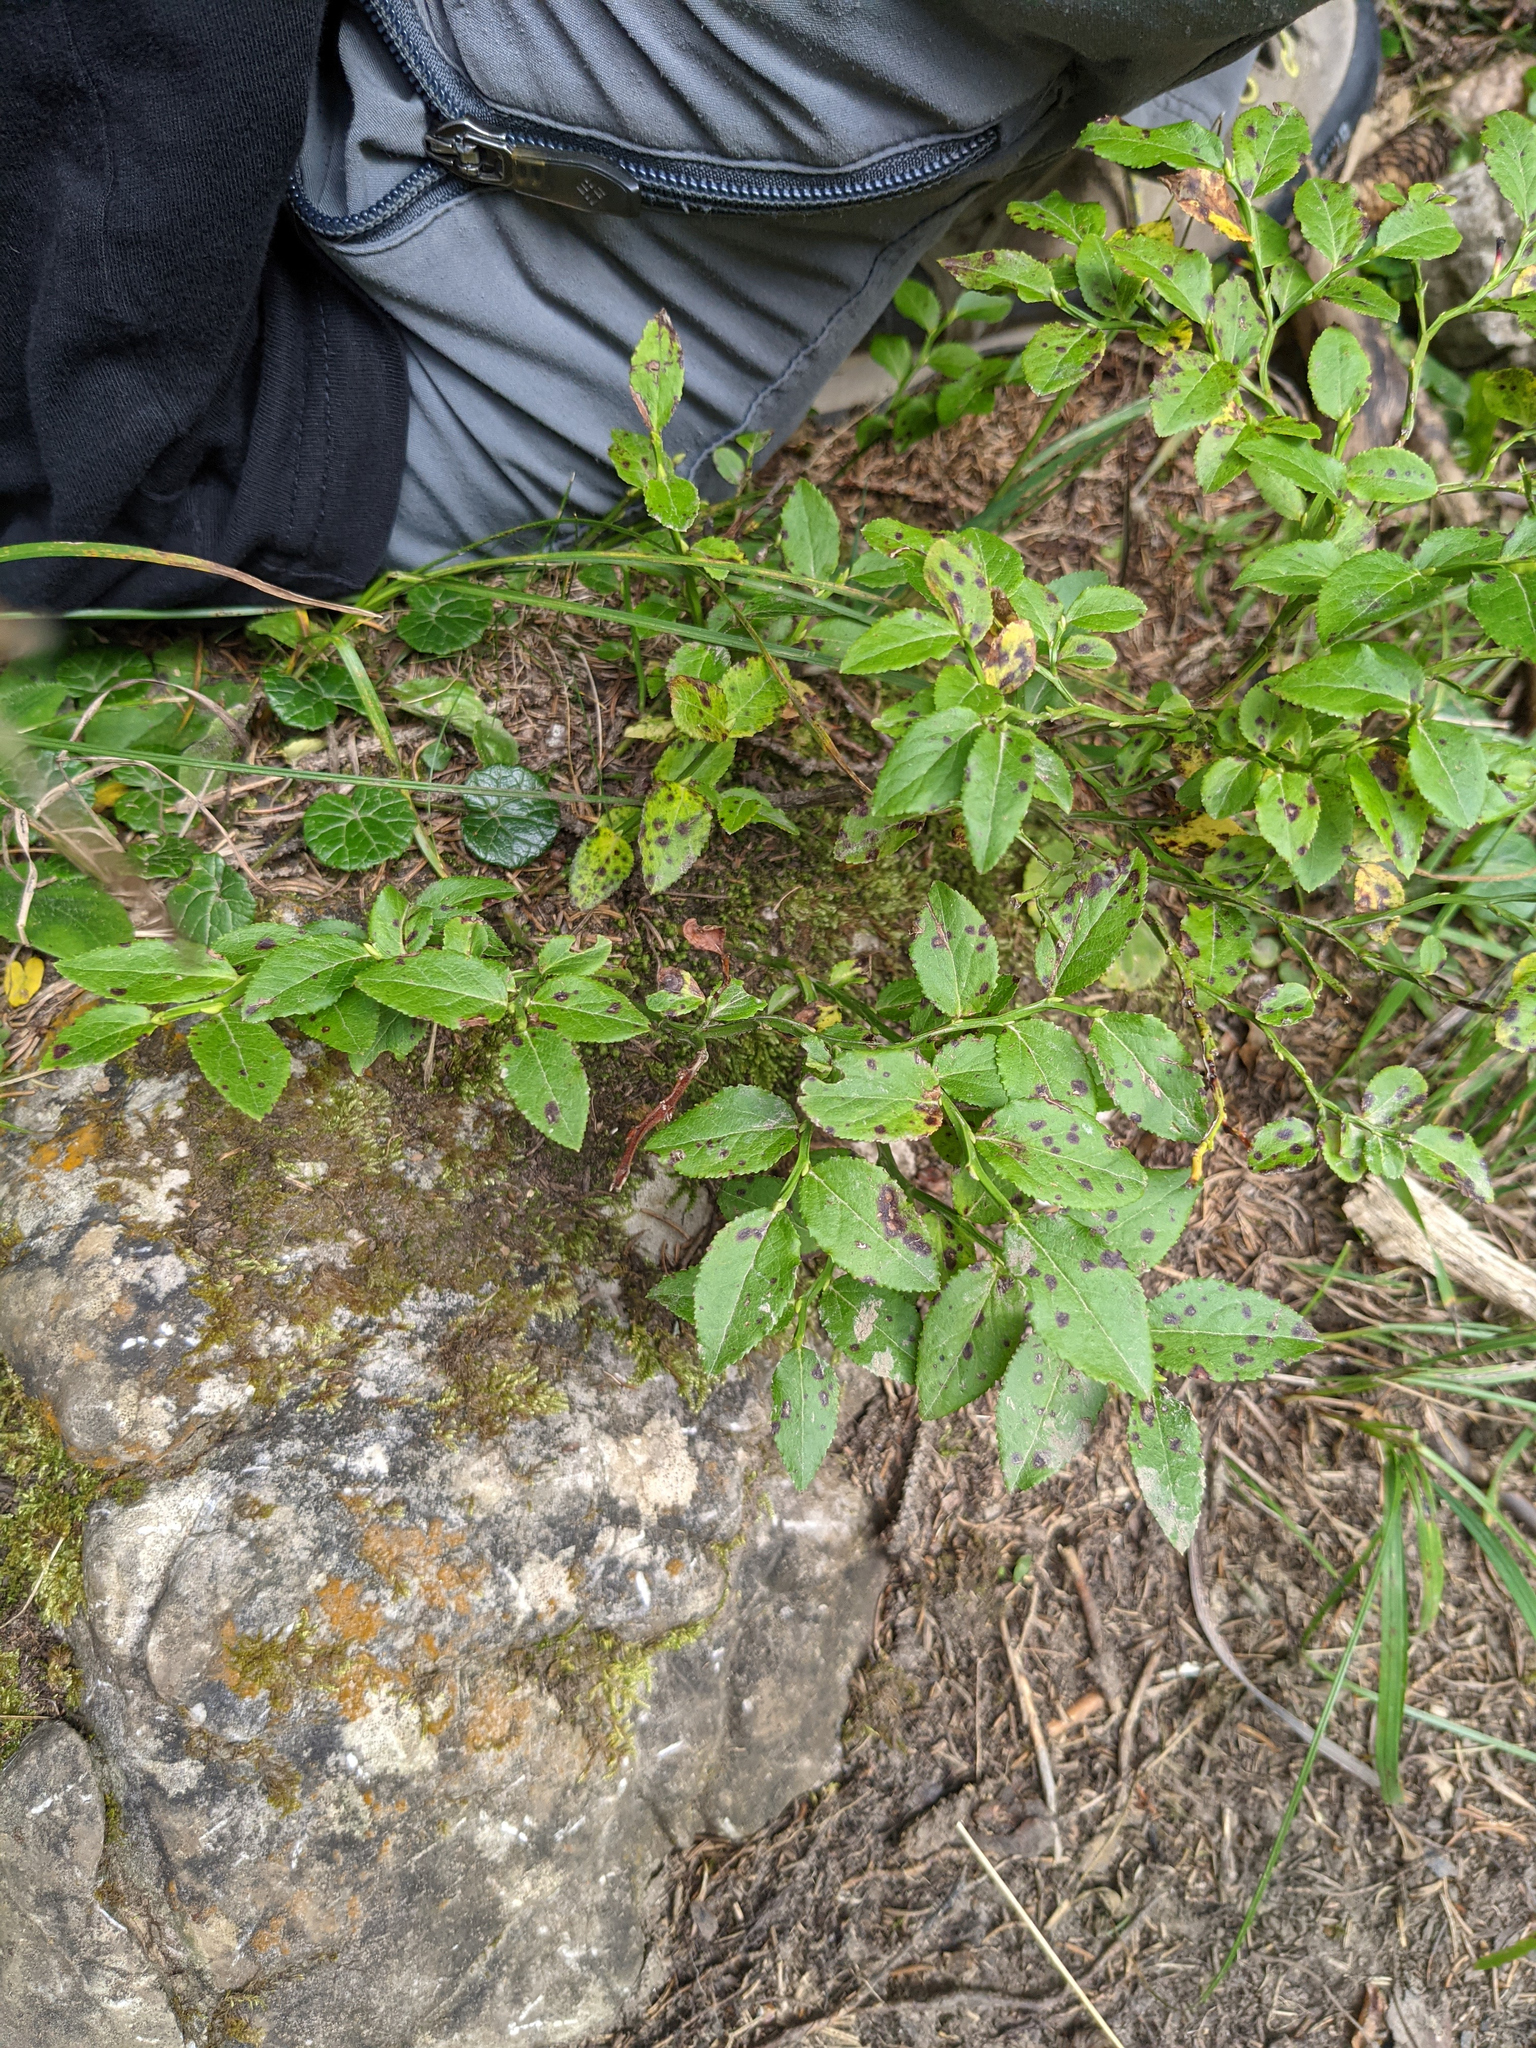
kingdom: Plantae
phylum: Tracheophyta
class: Magnoliopsida
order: Ericales
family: Ericaceae
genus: Vaccinium
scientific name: Vaccinium myrtillus
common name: Bilberry
